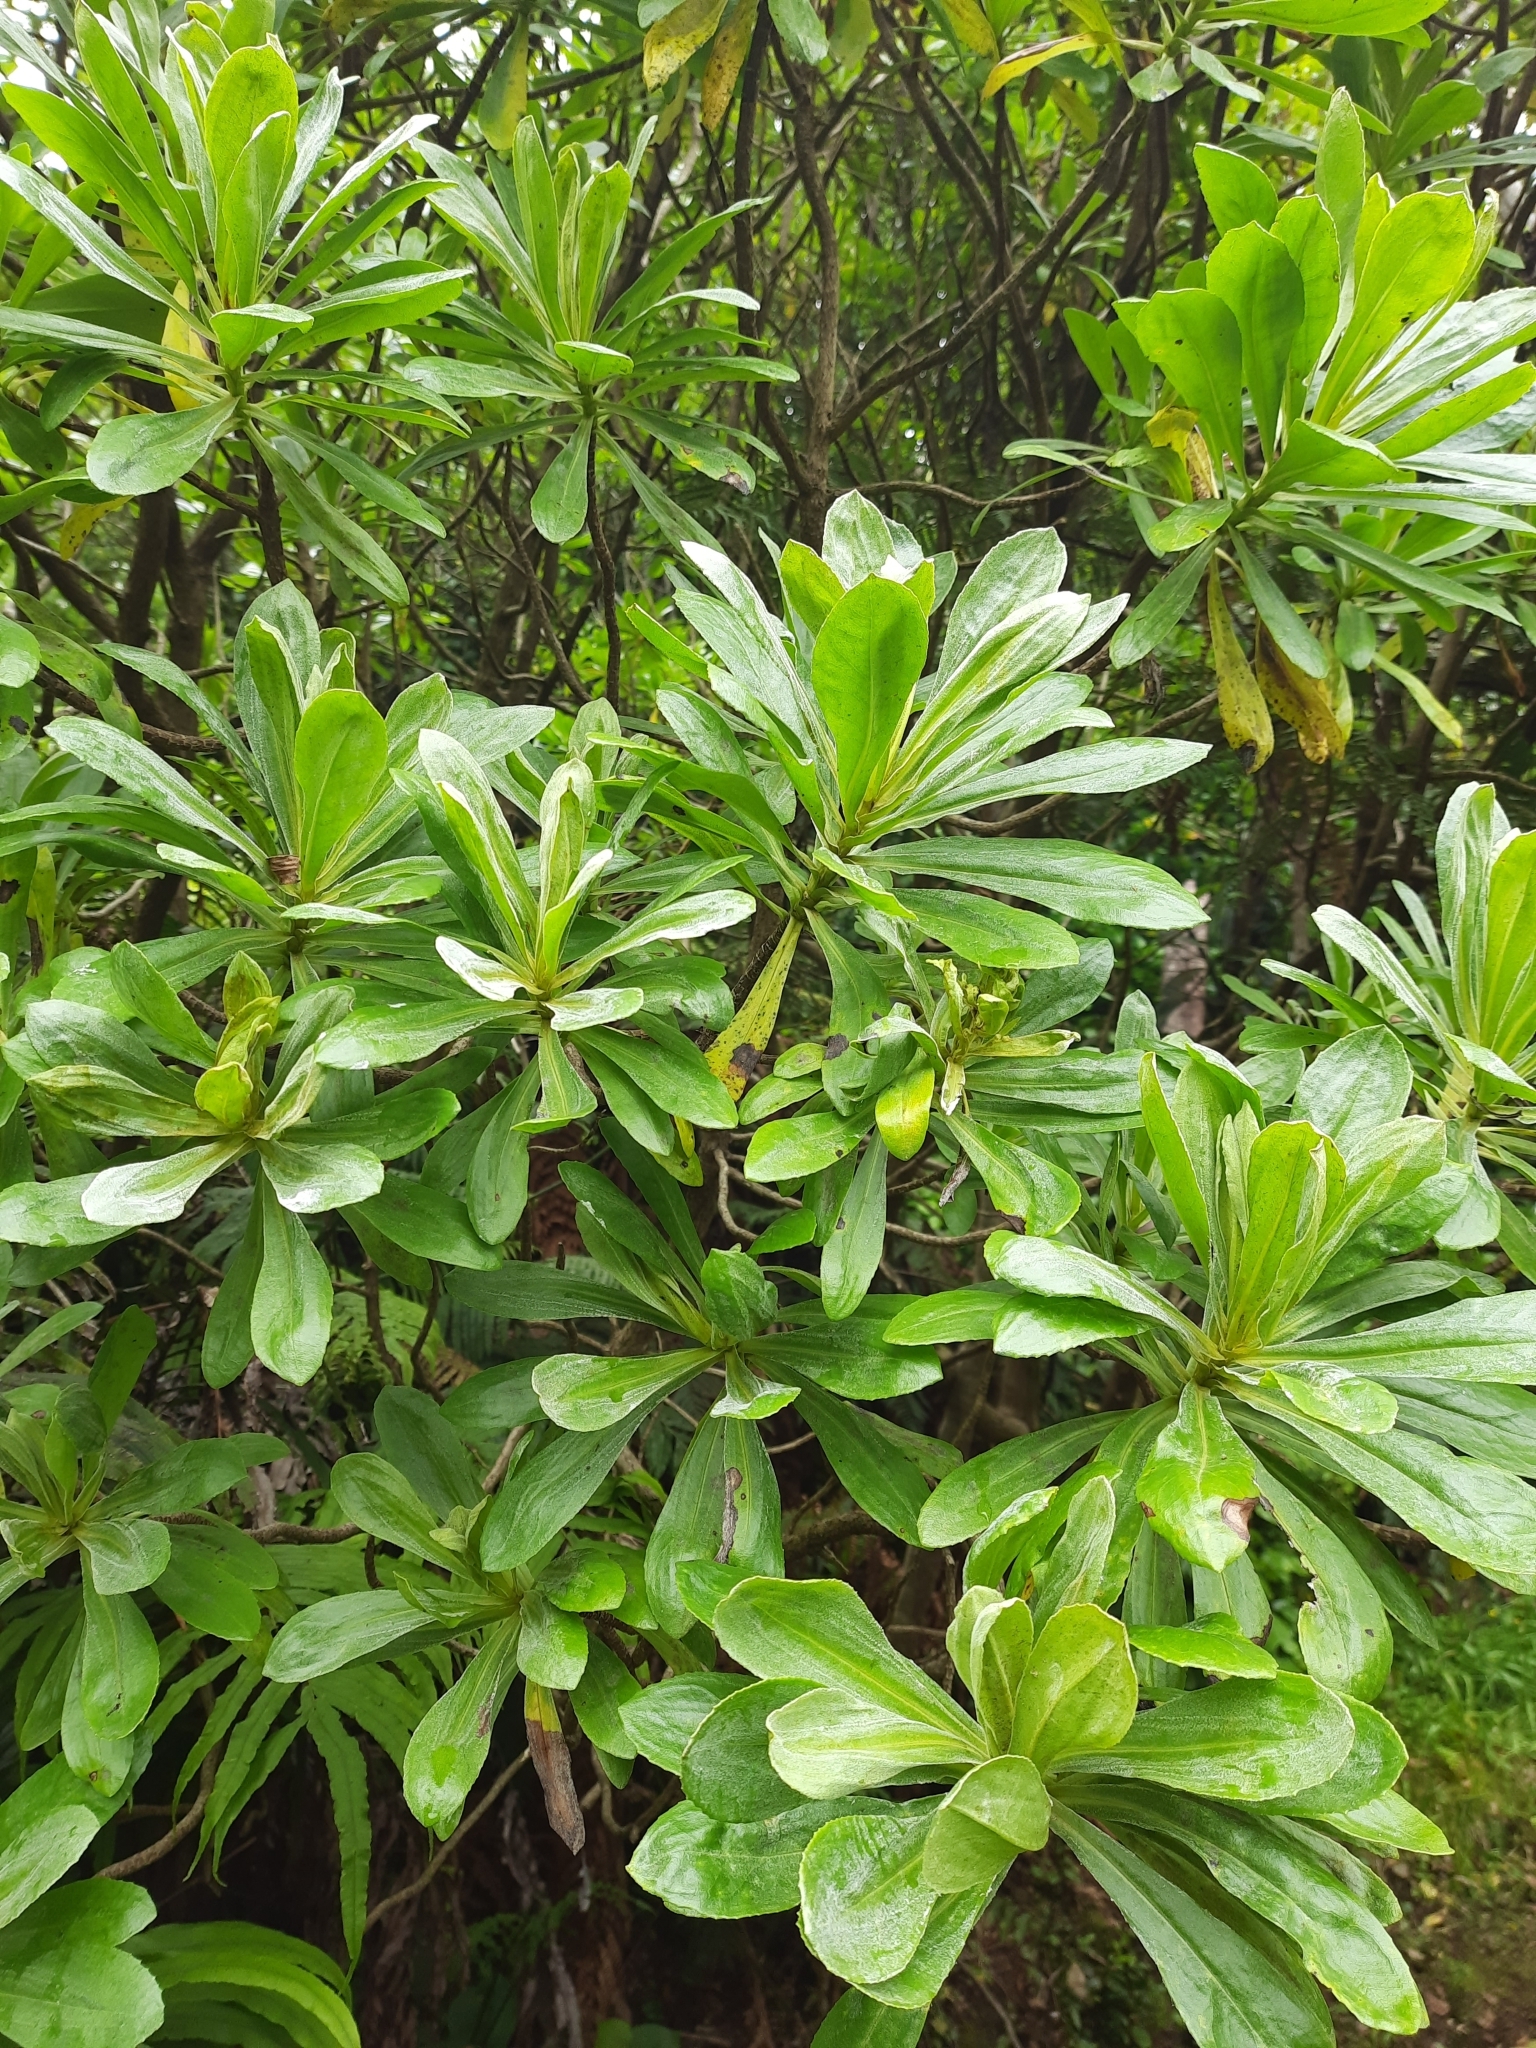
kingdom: Plantae
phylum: Tracheophyta
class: Magnoliopsida
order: Asterales
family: Asteraceae
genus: Brachyglottis
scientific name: Brachyglottis huntii
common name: Chatham island christmas tree
